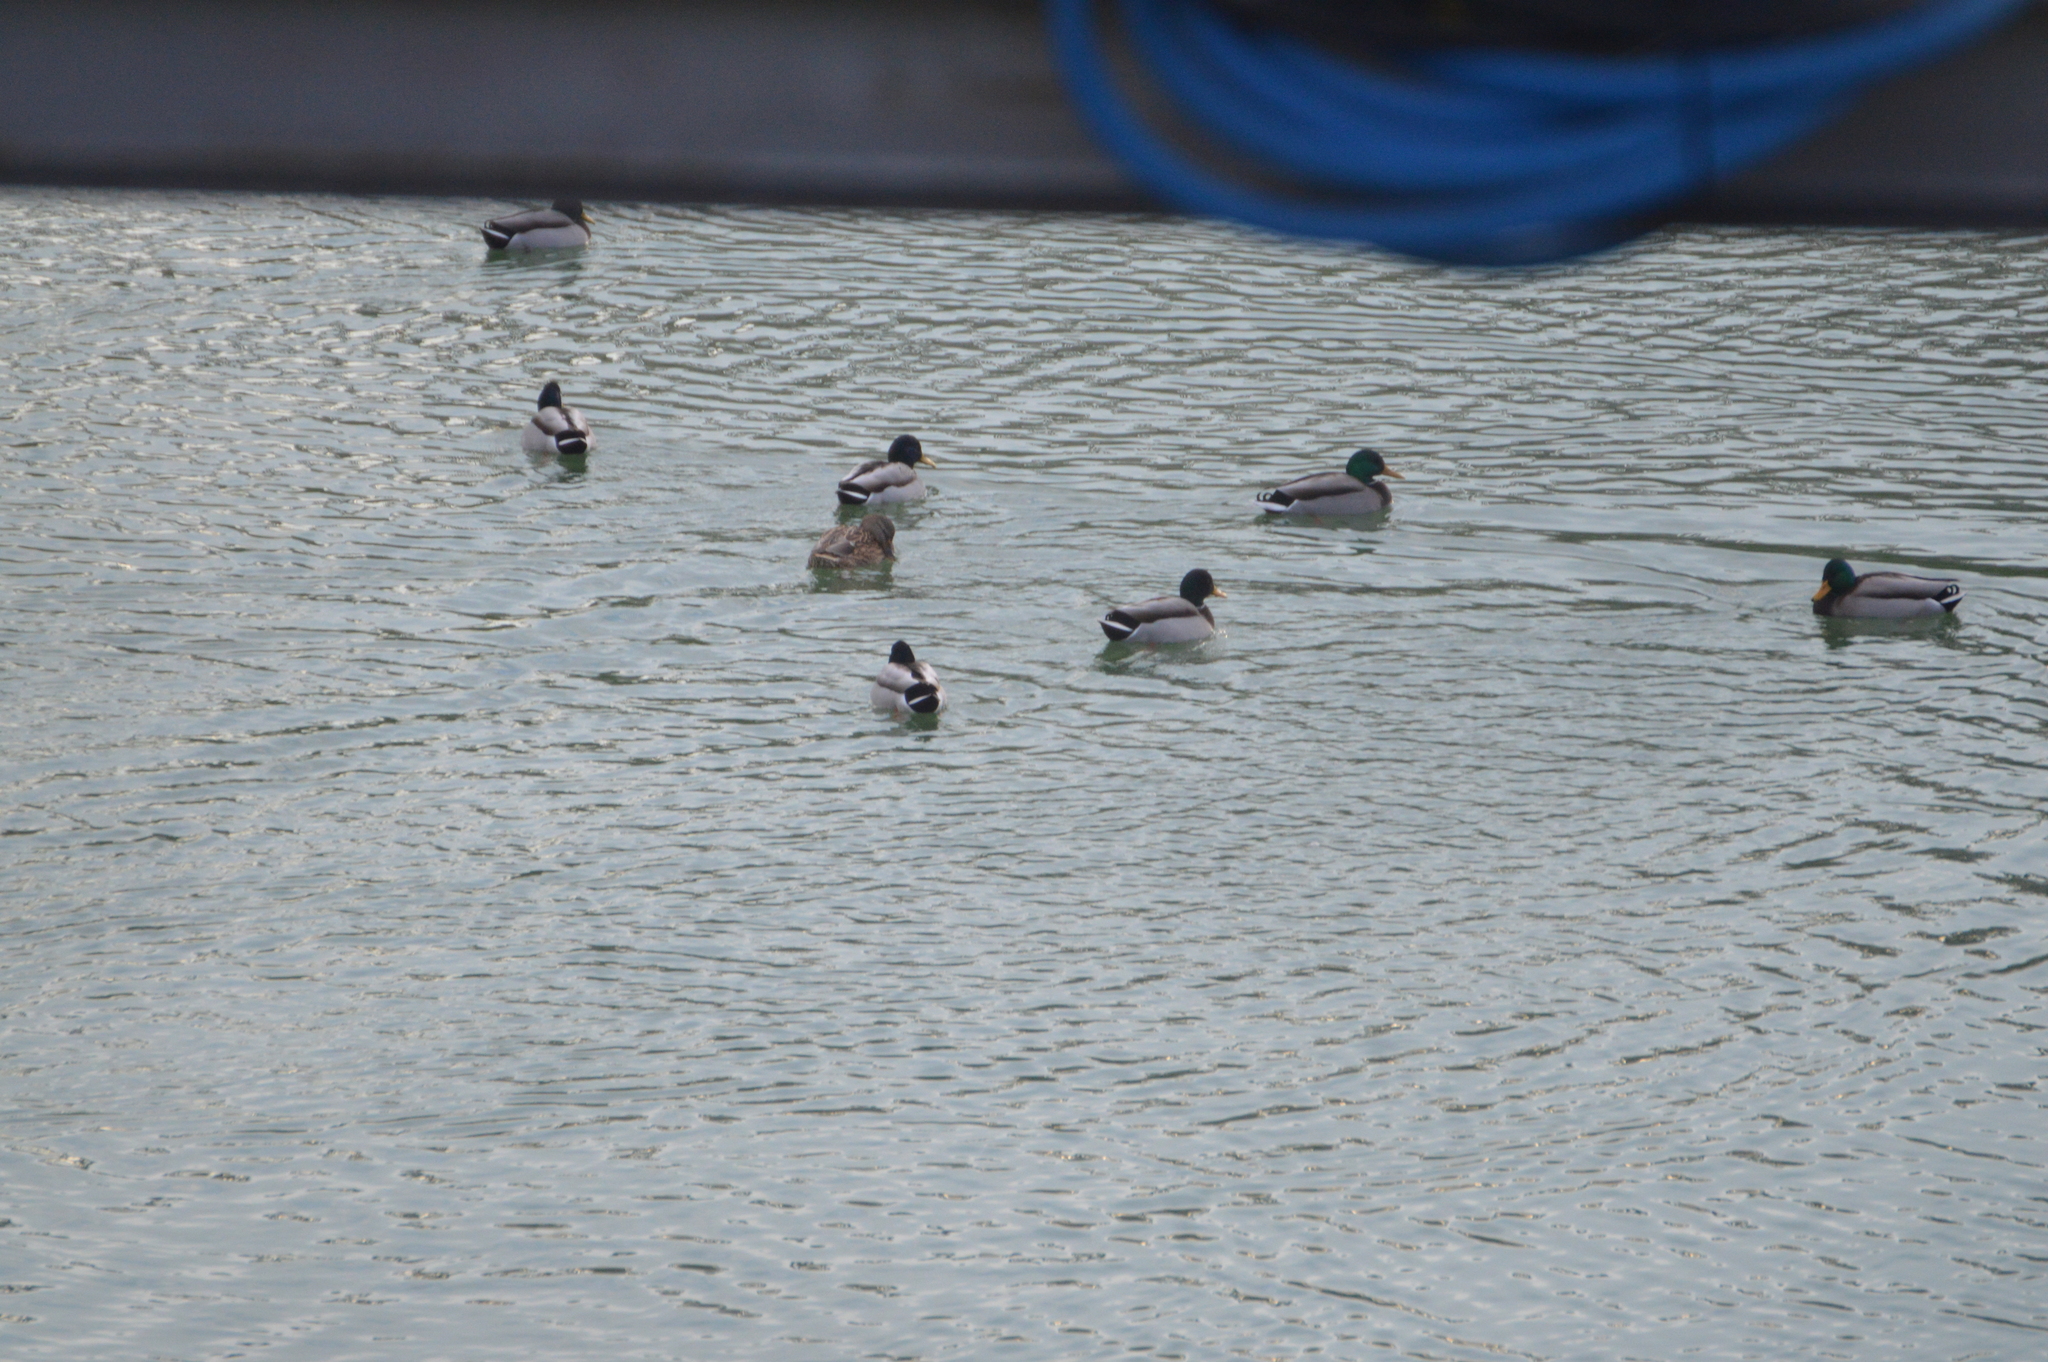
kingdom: Animalia
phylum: Chordata
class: Aves
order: Anseriformes
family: Anatidae
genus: Anas
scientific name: Anas platyrhynchos
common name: Mallard
